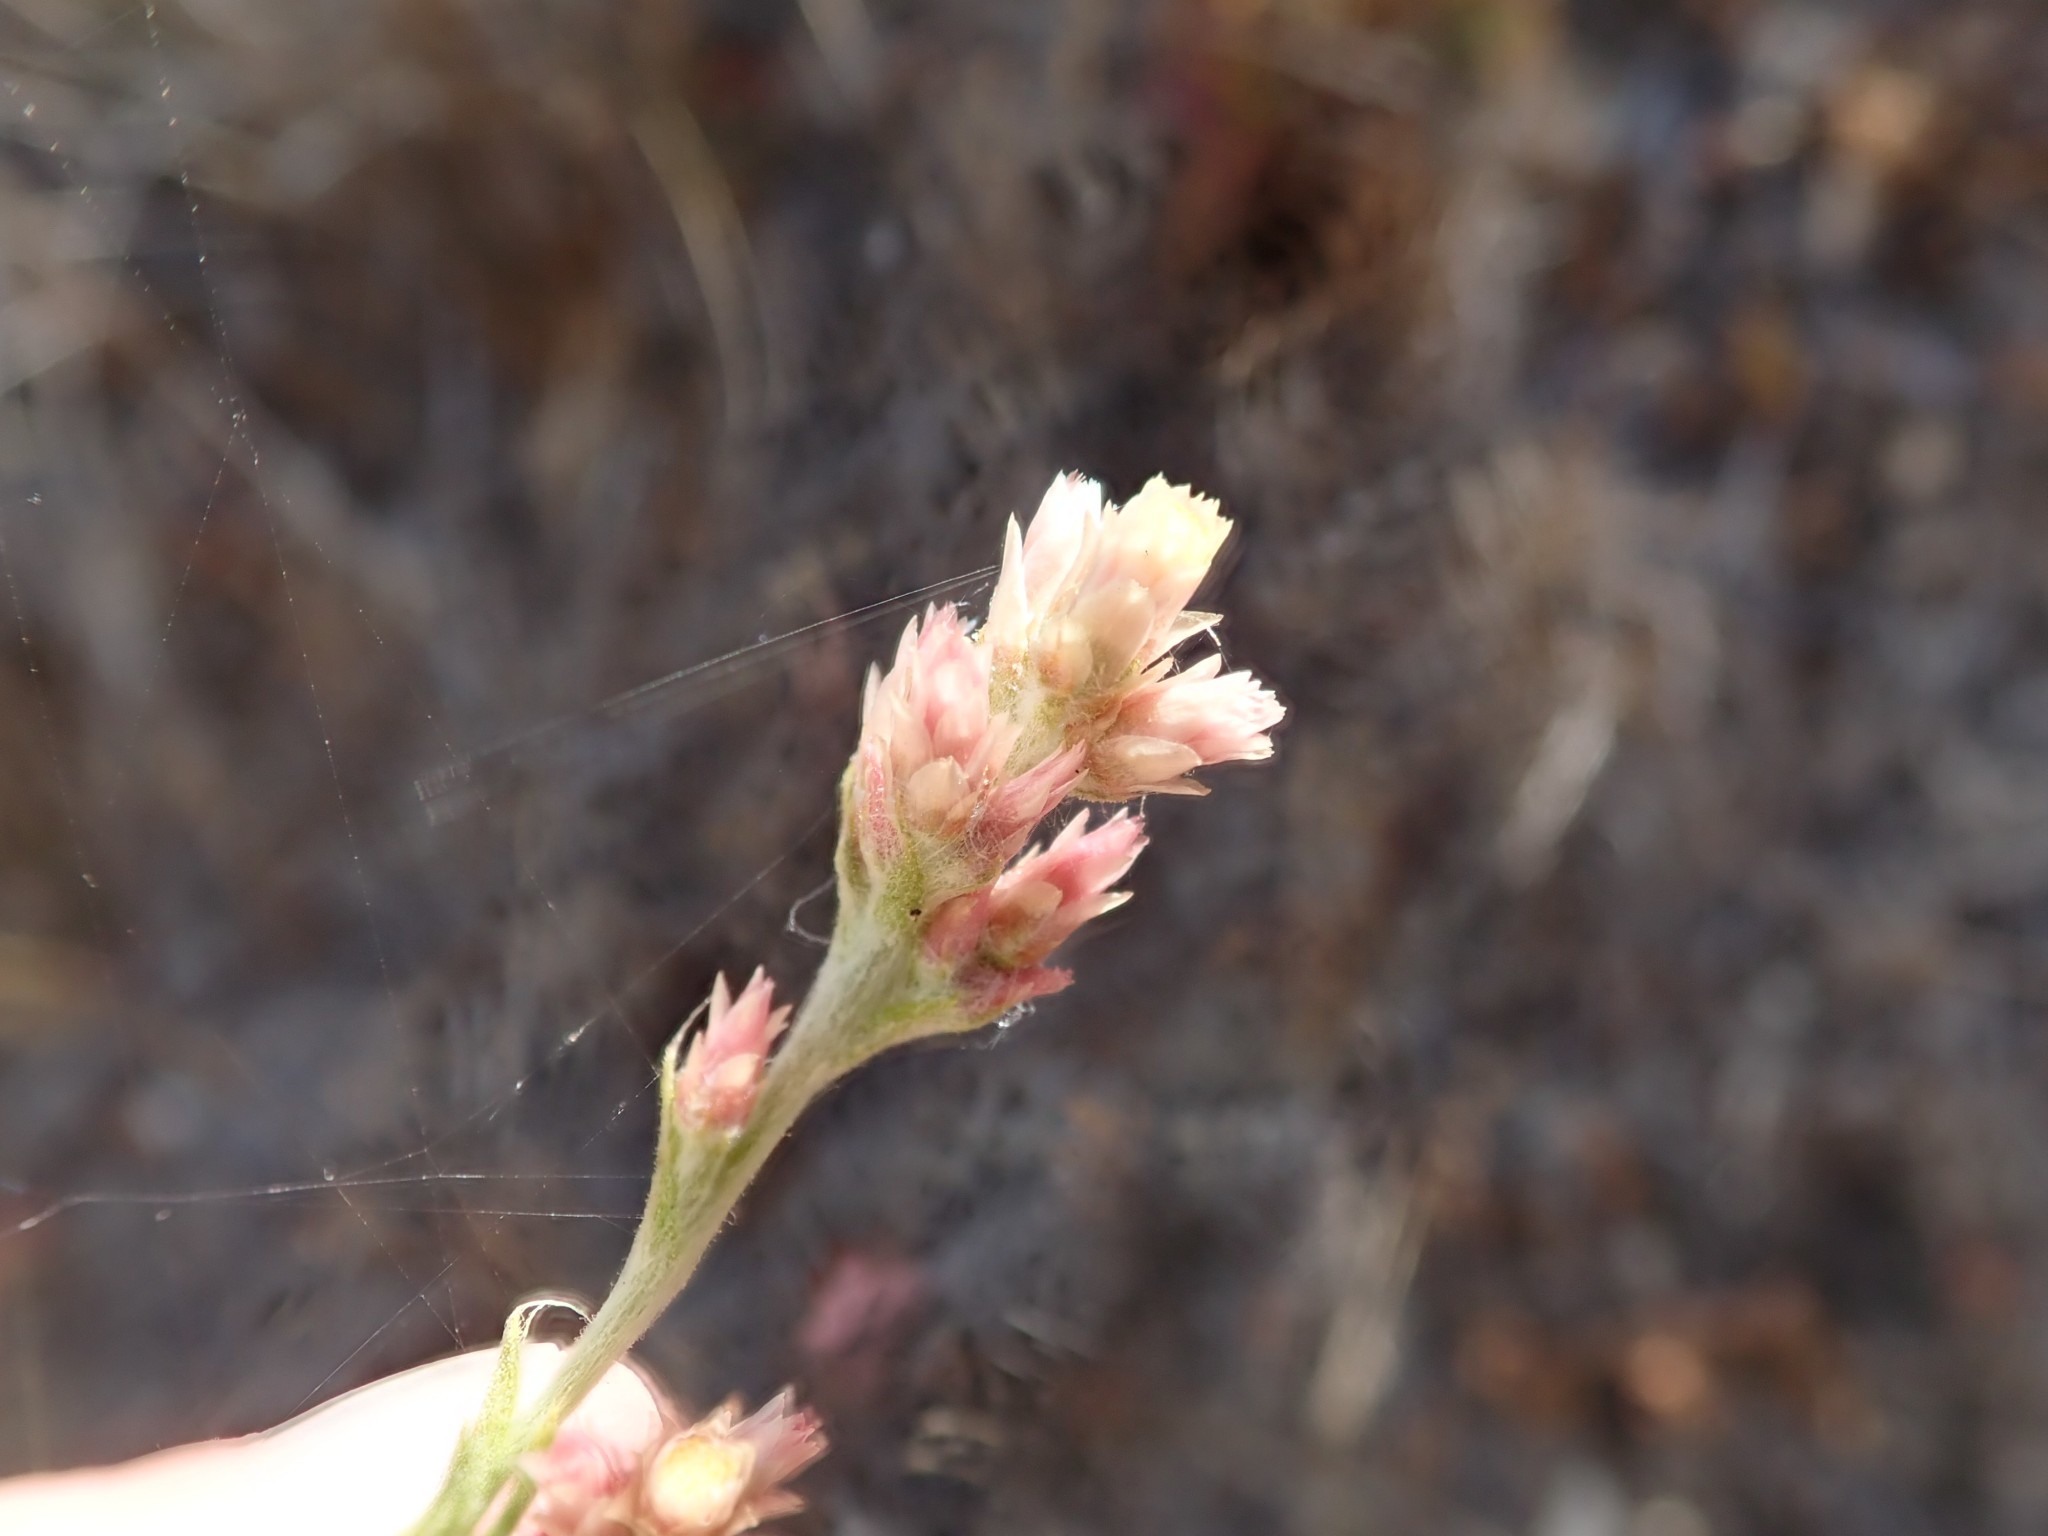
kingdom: Plantae
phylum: Tracheophyta
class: Magnoliopsida
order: Asterales
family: Asteraceae
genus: Pseudognaphalium
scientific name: Pseudognaphalium ramosissimum
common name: Pink rabbit-tobacco
